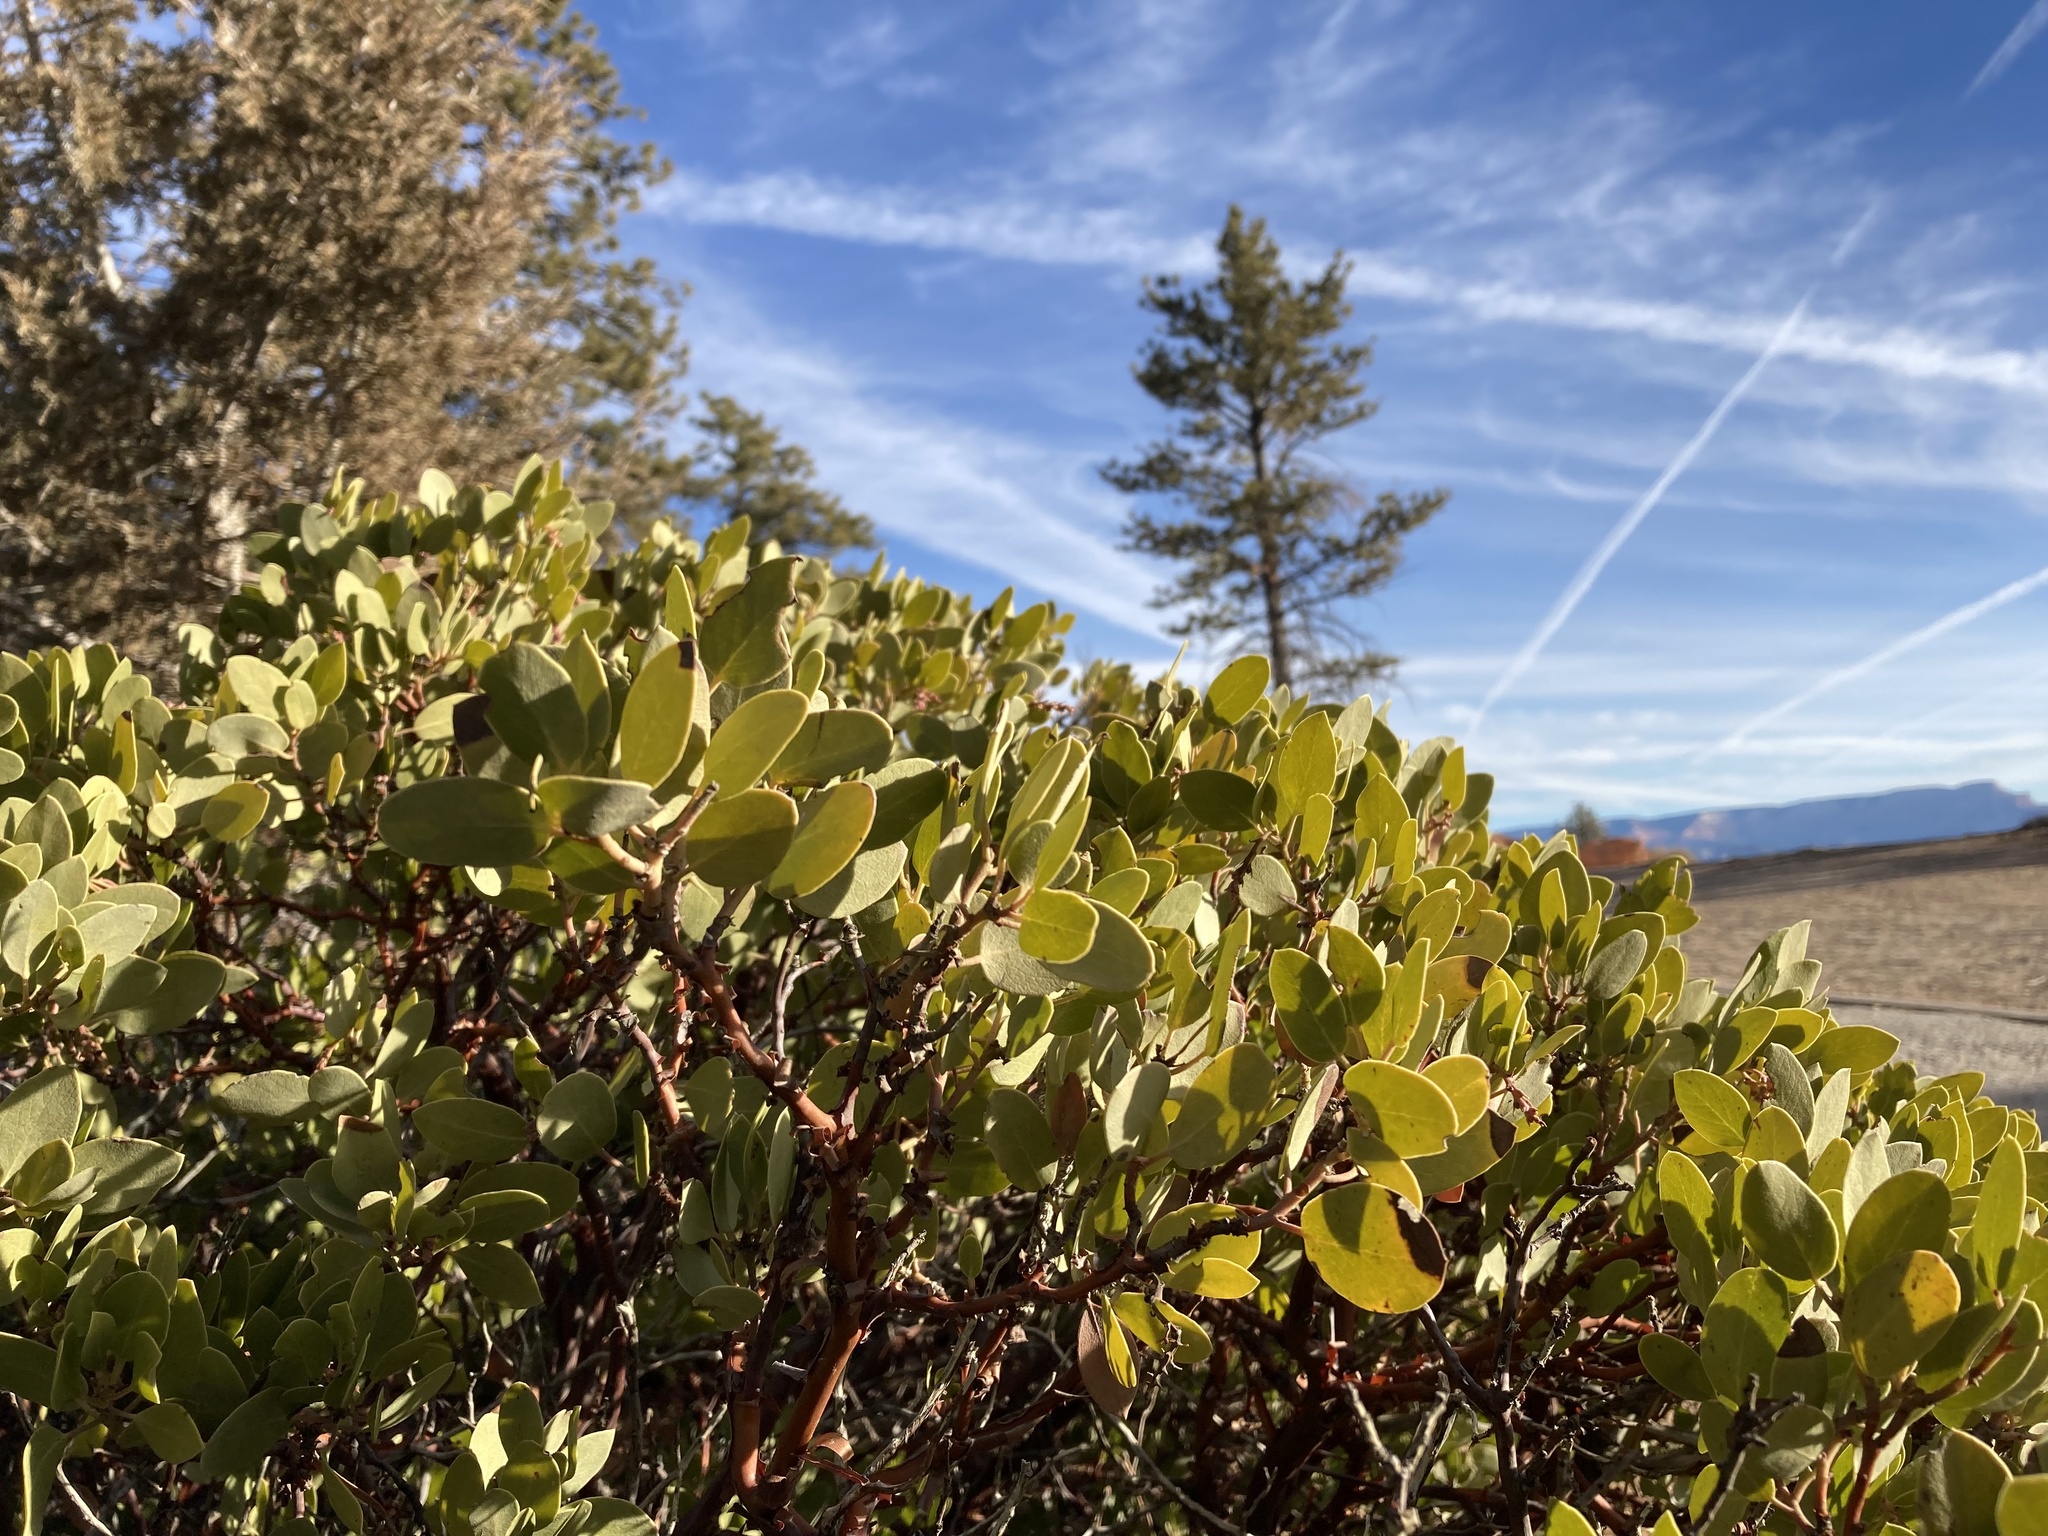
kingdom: Plantae
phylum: Tracheophyta
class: Magnoliopsida
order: Ericales
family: Ericaceae
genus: Arctostaphylos
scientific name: Arctostaphylos patula
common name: Green-leaf manzanita
